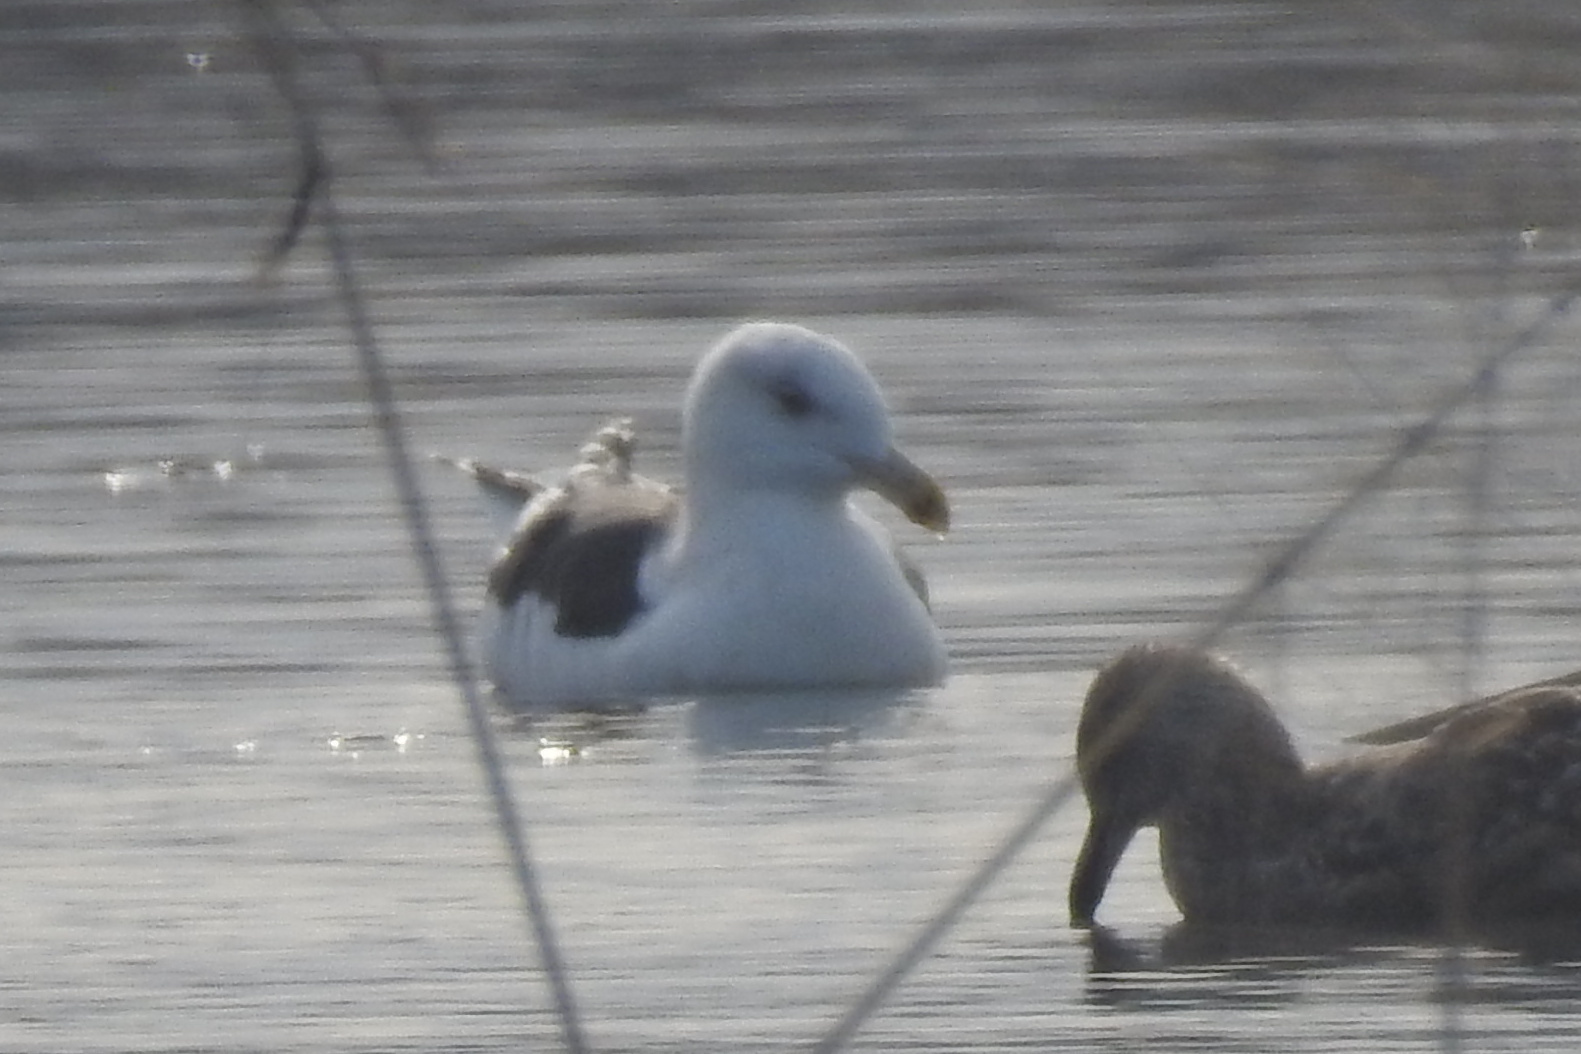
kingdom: Animalia
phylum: Chordata
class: Aves
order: Charadriiformes
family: Laridae
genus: Larus
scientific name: Larus marinus
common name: Great black-backed gull
